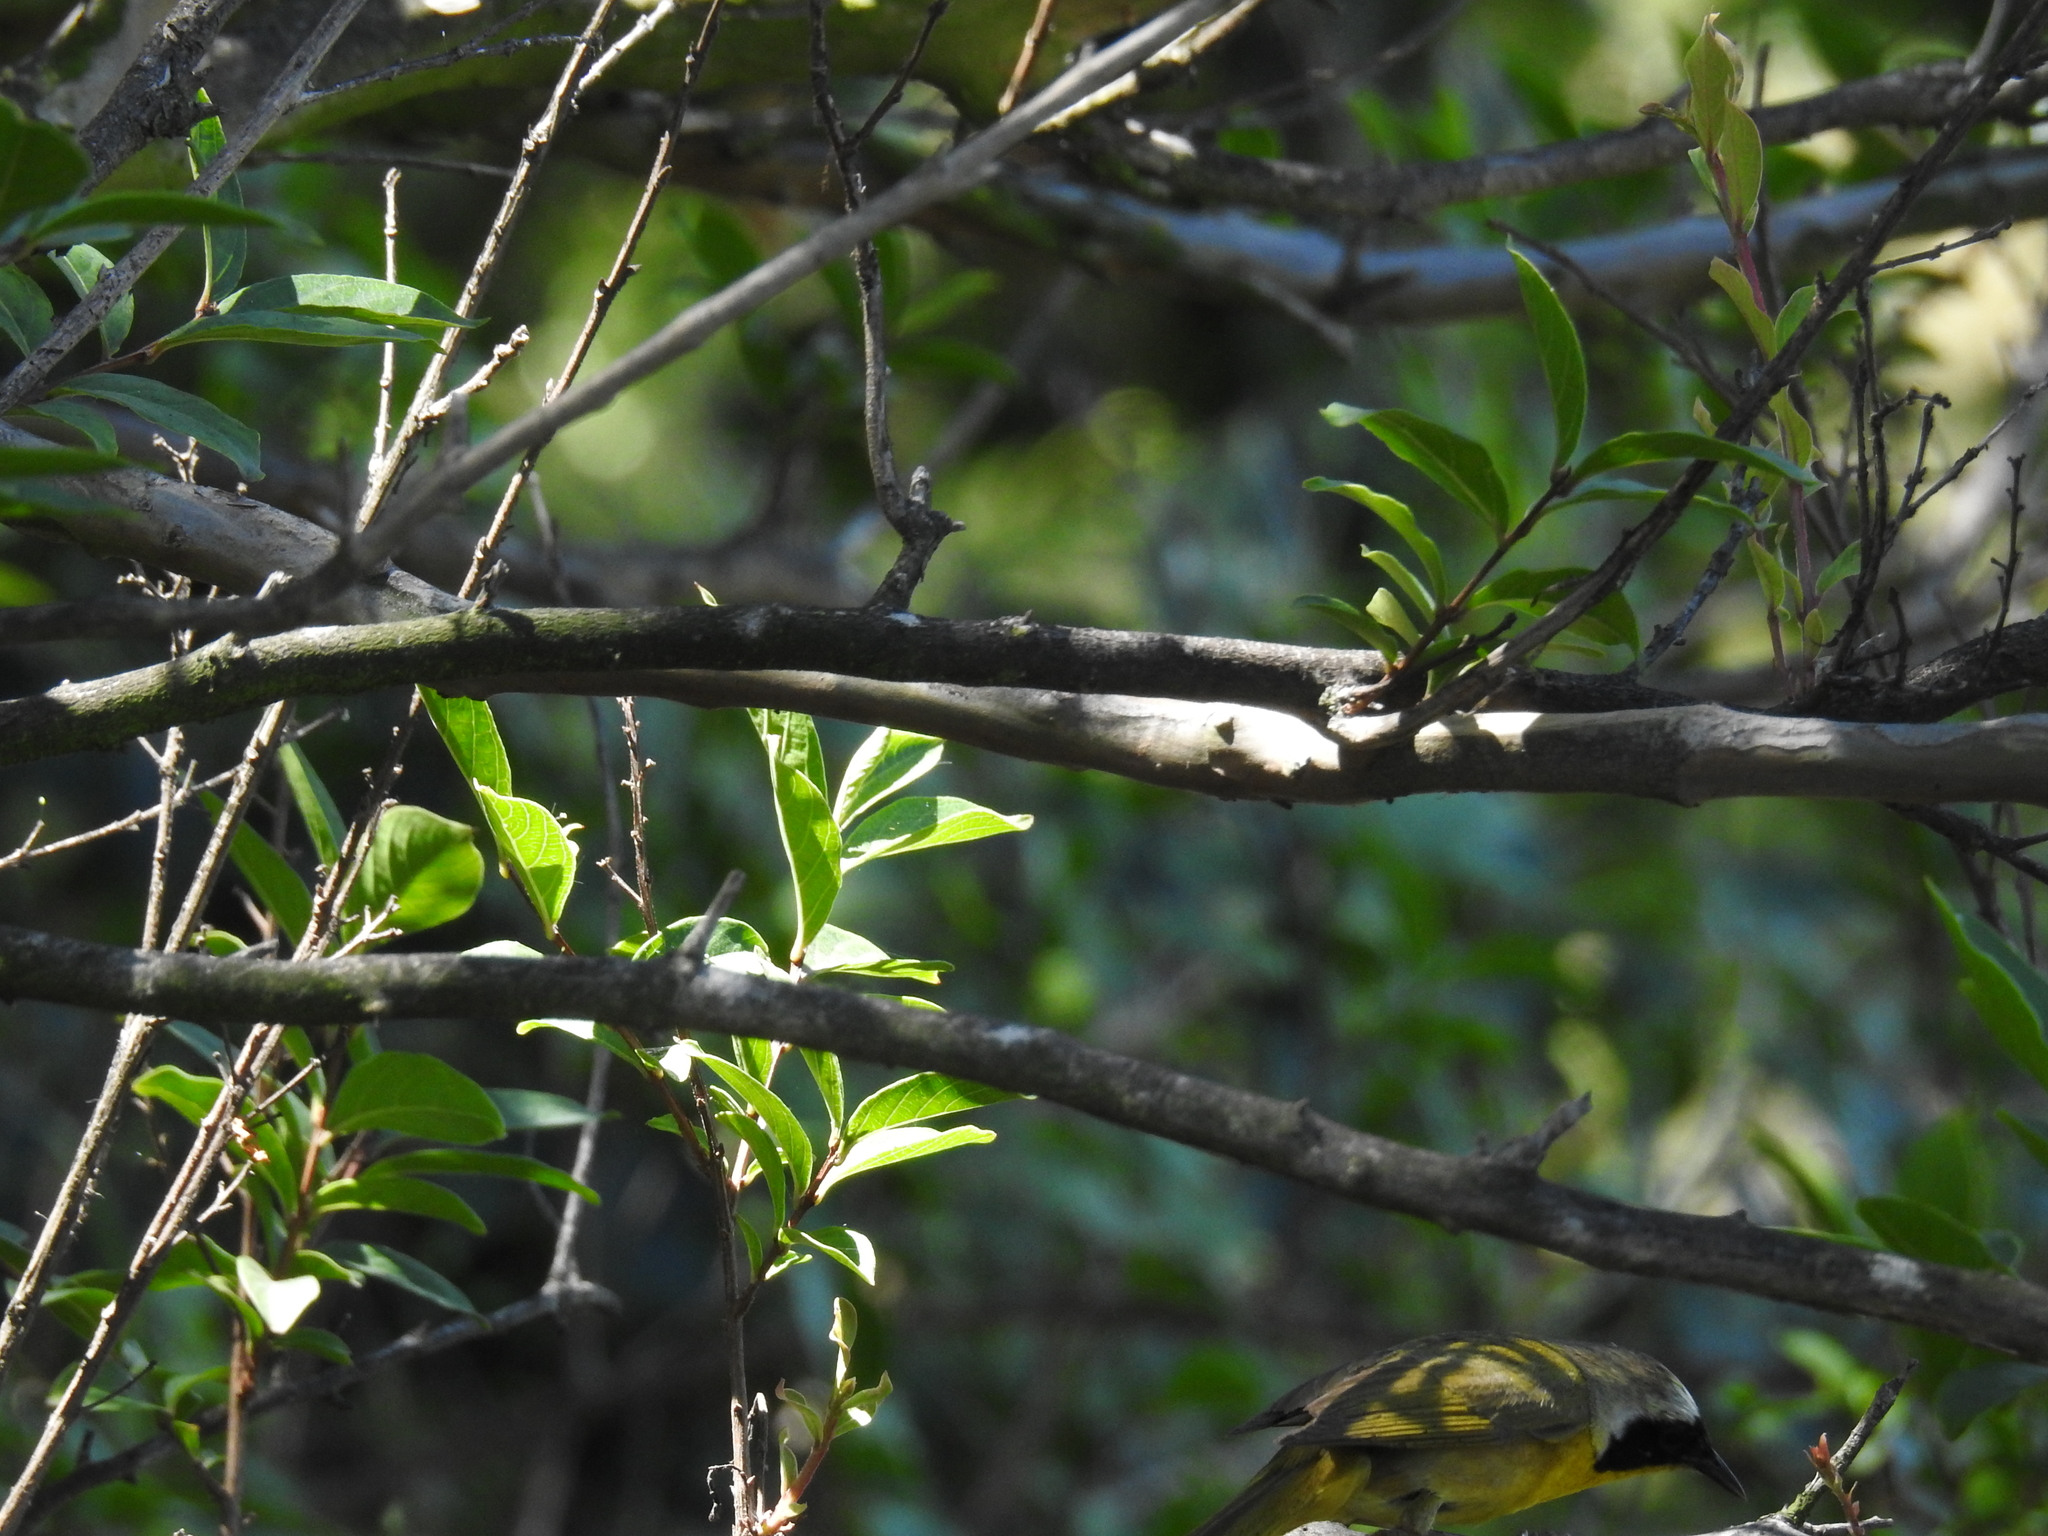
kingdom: Animalia
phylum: Chordata
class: Aves
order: Passeriformes
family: Parulidae
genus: Geothlypis
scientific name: Geothlypis trichas
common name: Common yellowthroat
